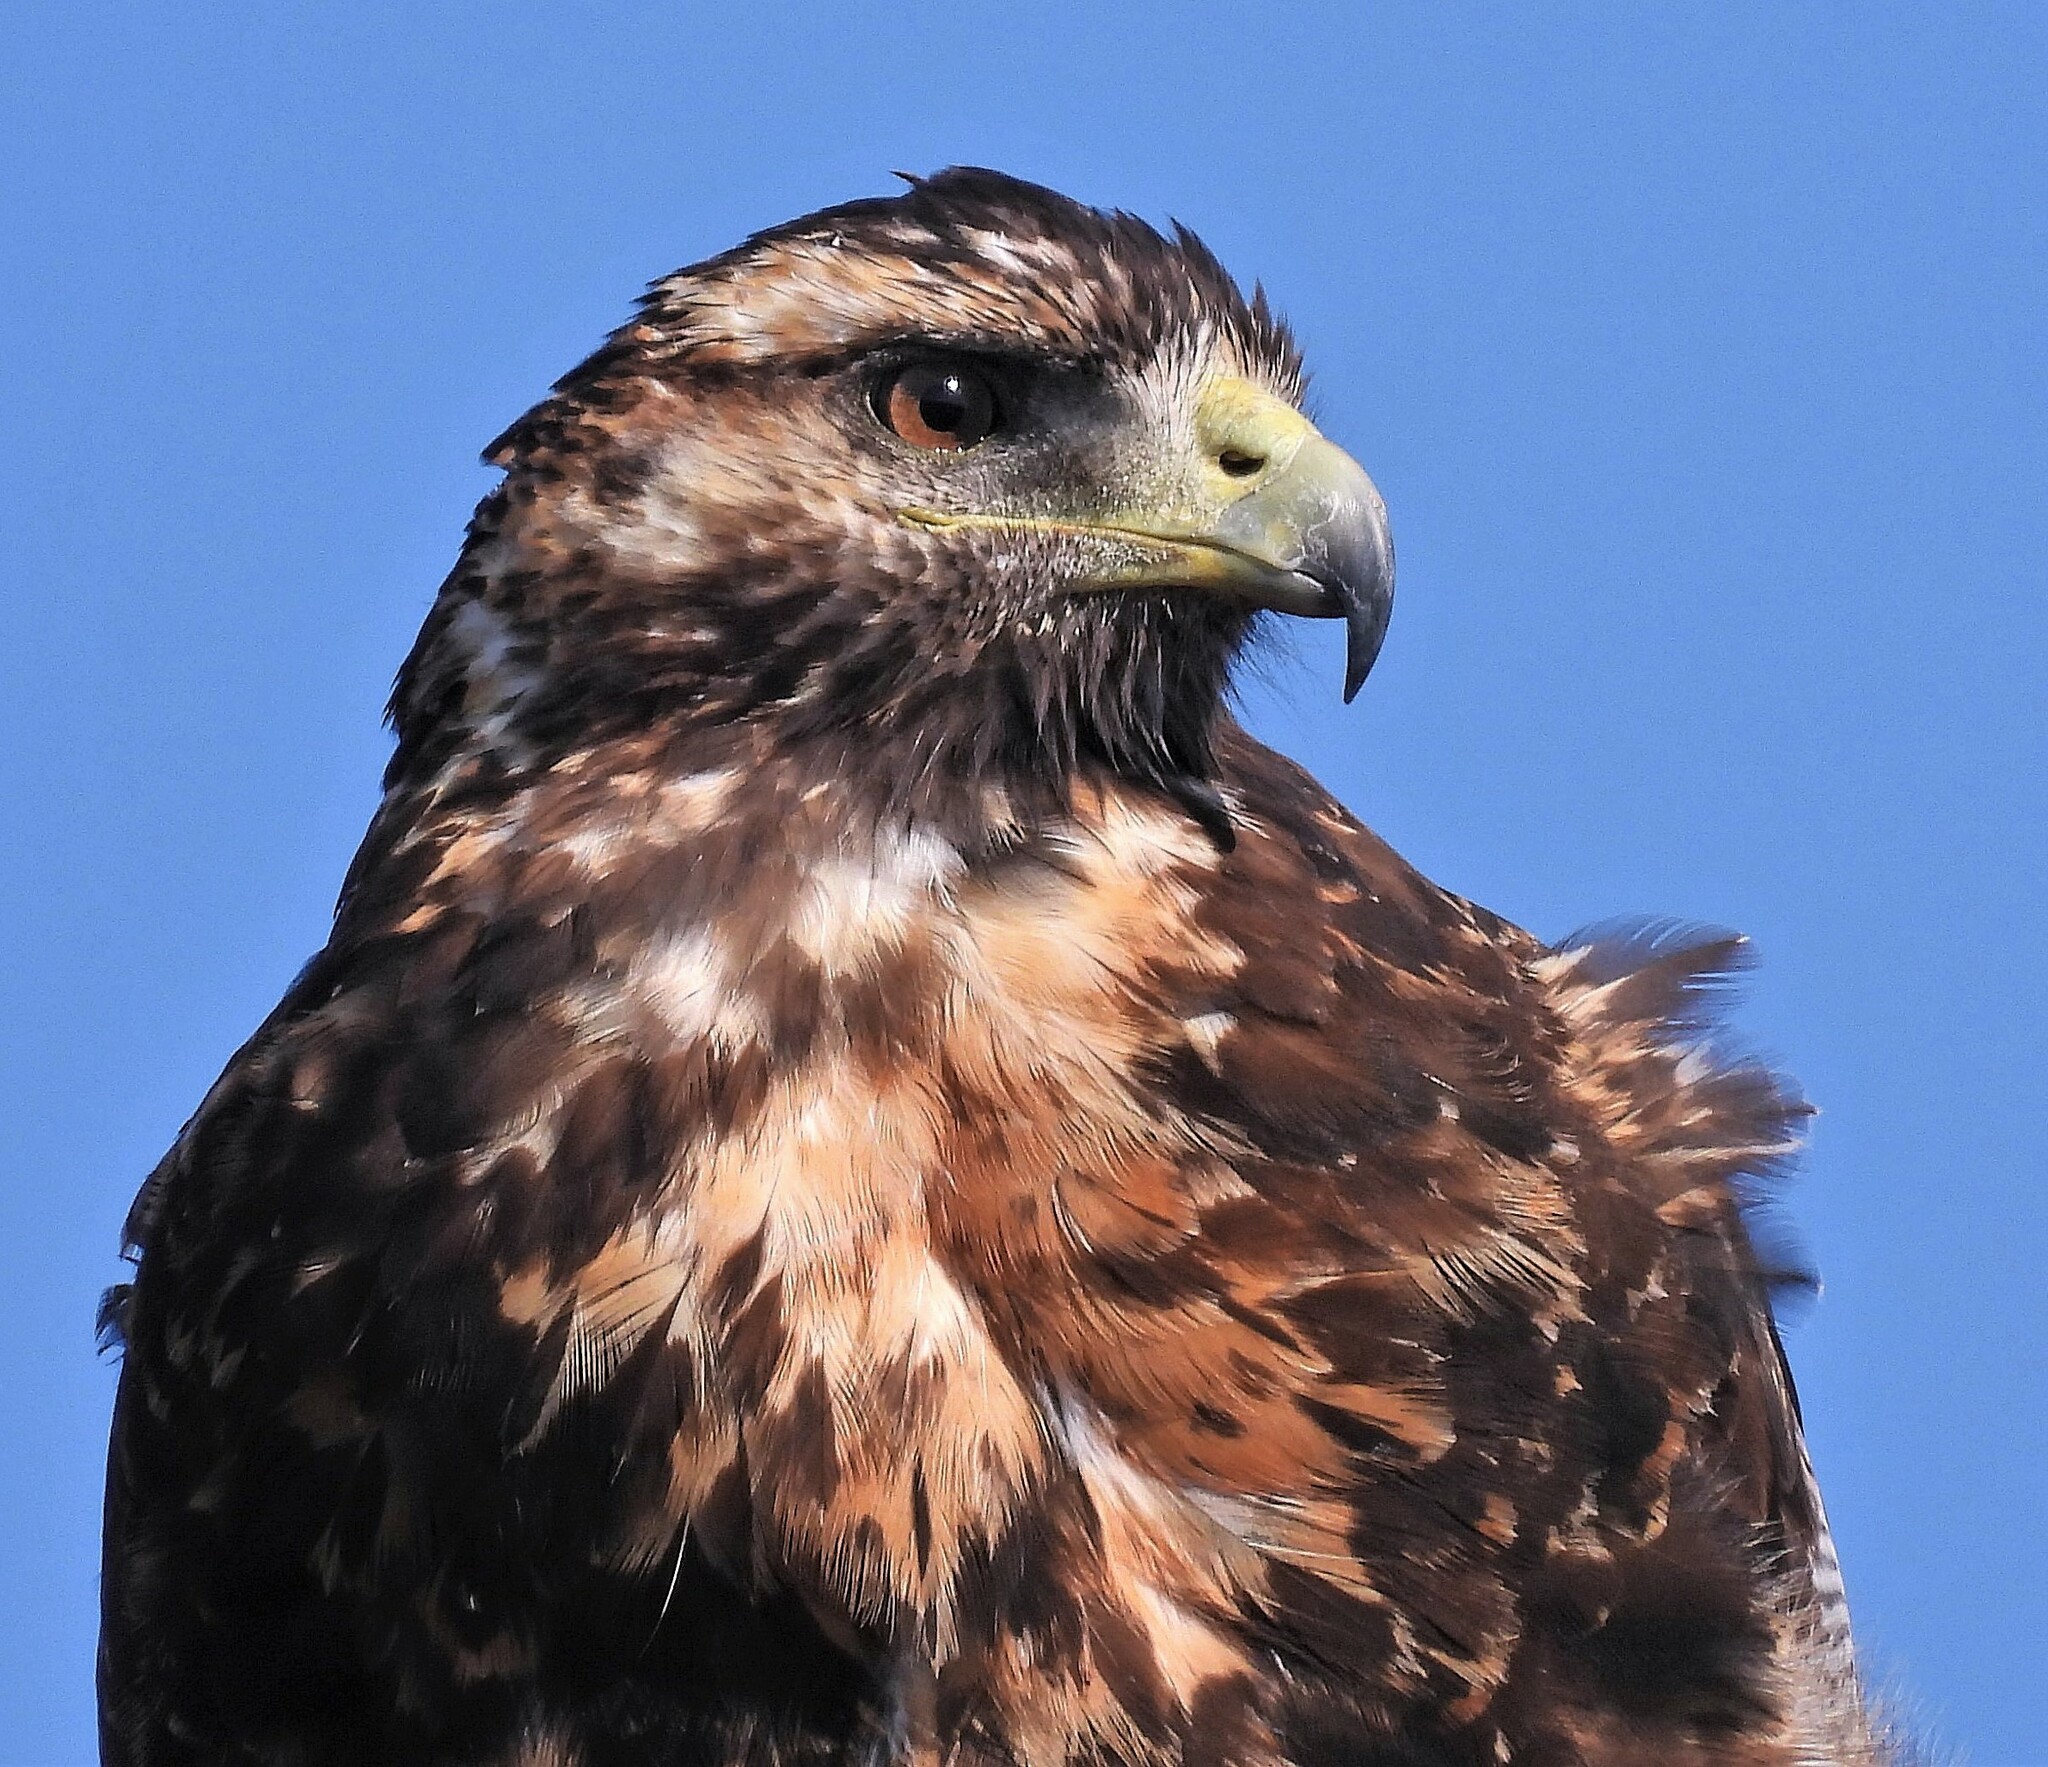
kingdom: Animalia
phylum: Chordata
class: Aves
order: Accipitriformes
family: Accipitridae
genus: Geranoaetus
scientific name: Geranoaetus melanoleucus
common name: Black-chested buzzard-eagle
